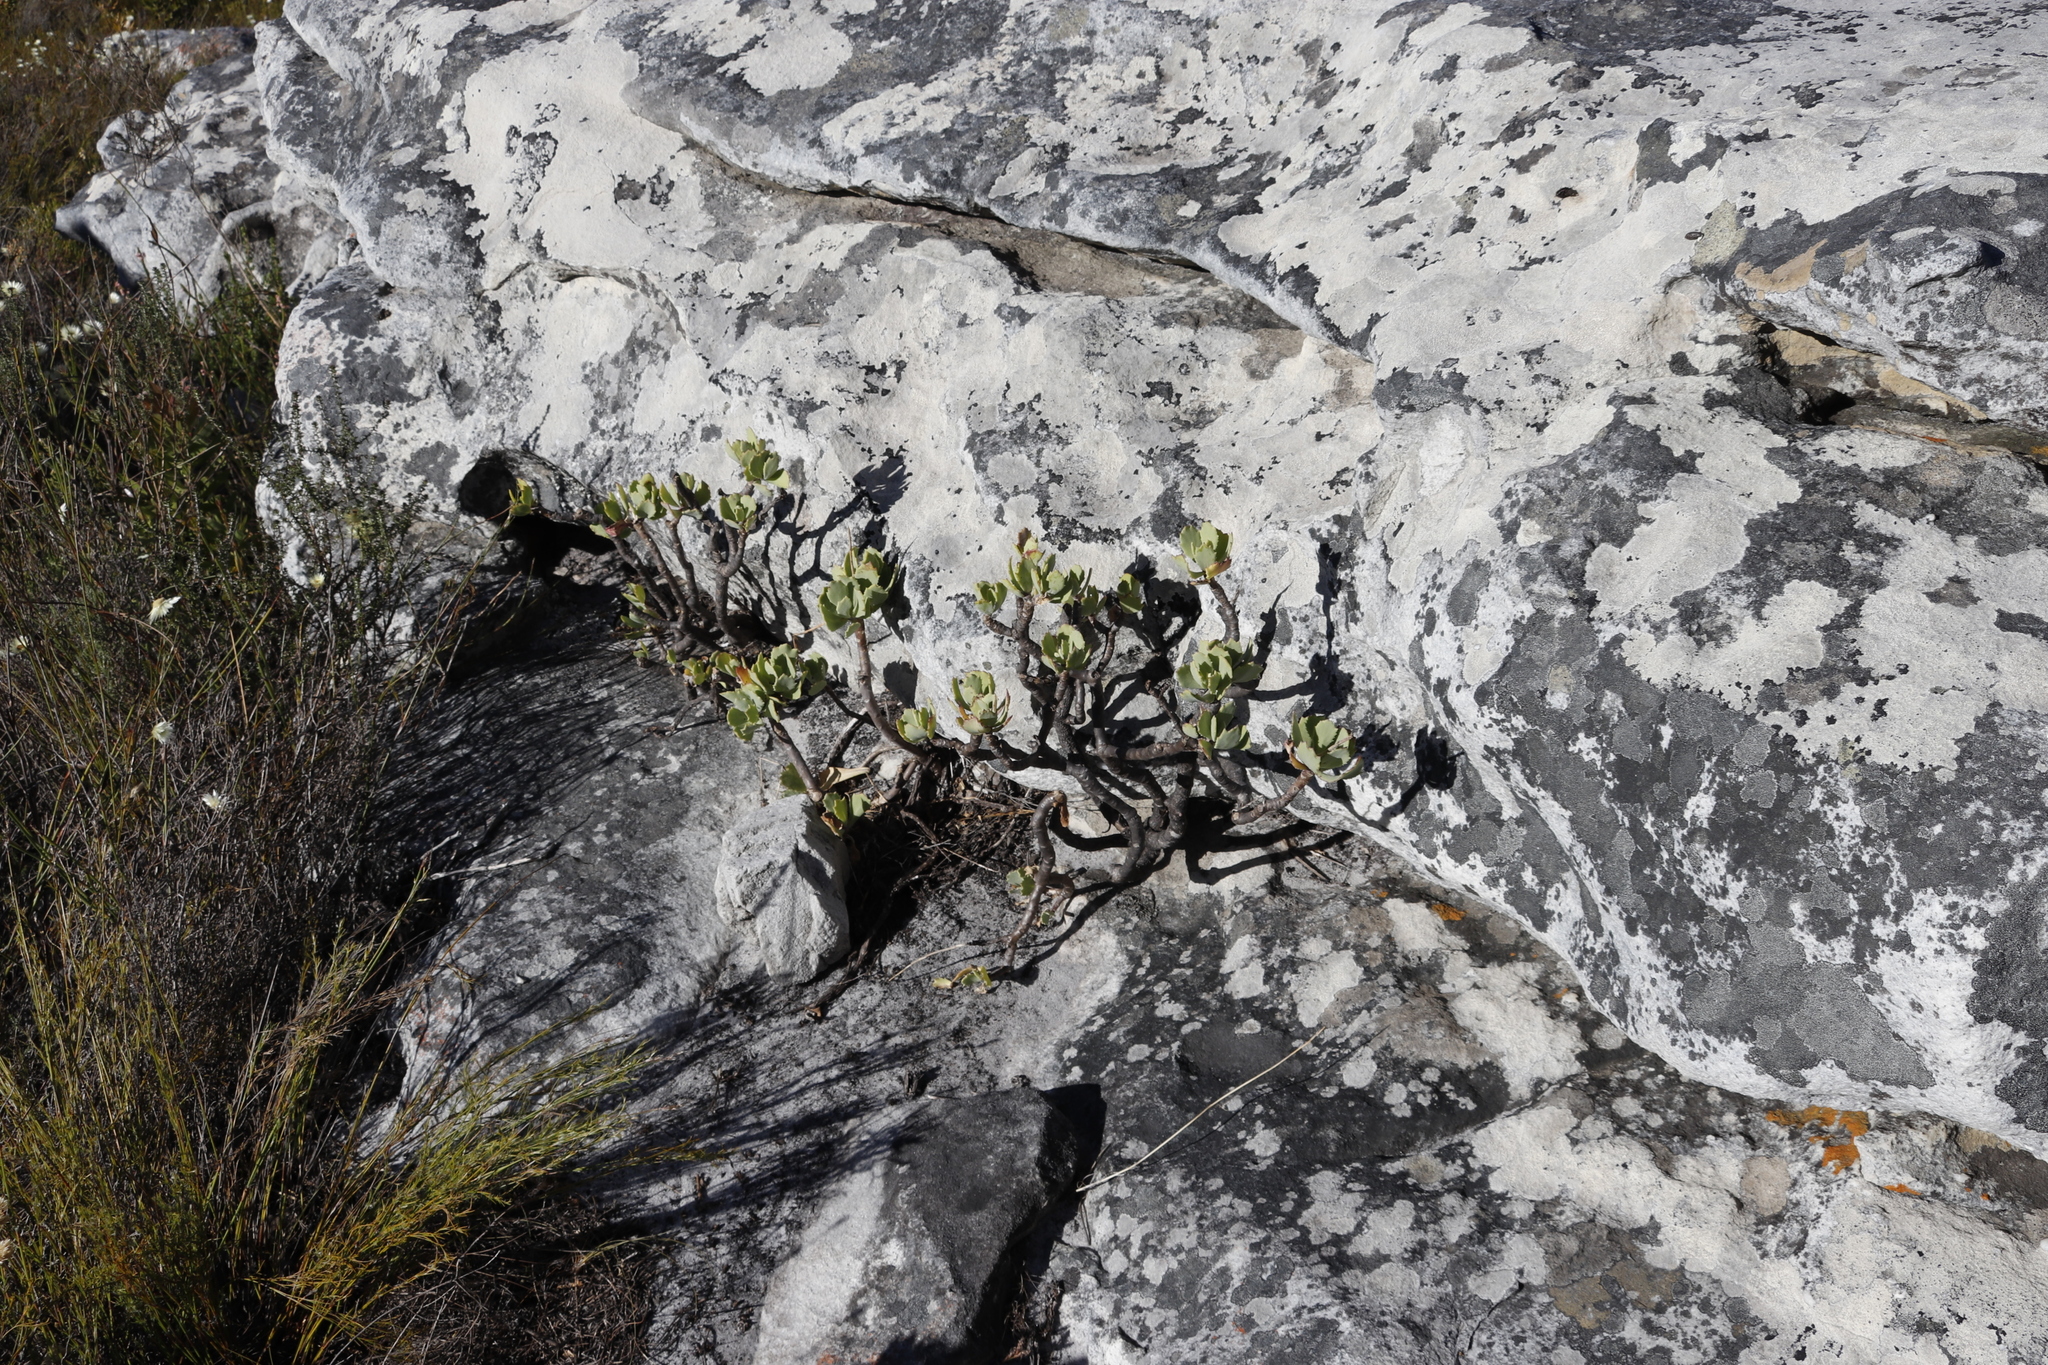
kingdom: Plantae
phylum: Tracheophyta
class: Magnoliopsida
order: Asterales
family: Asteraceae
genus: Othonna
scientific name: Othonna dentata
